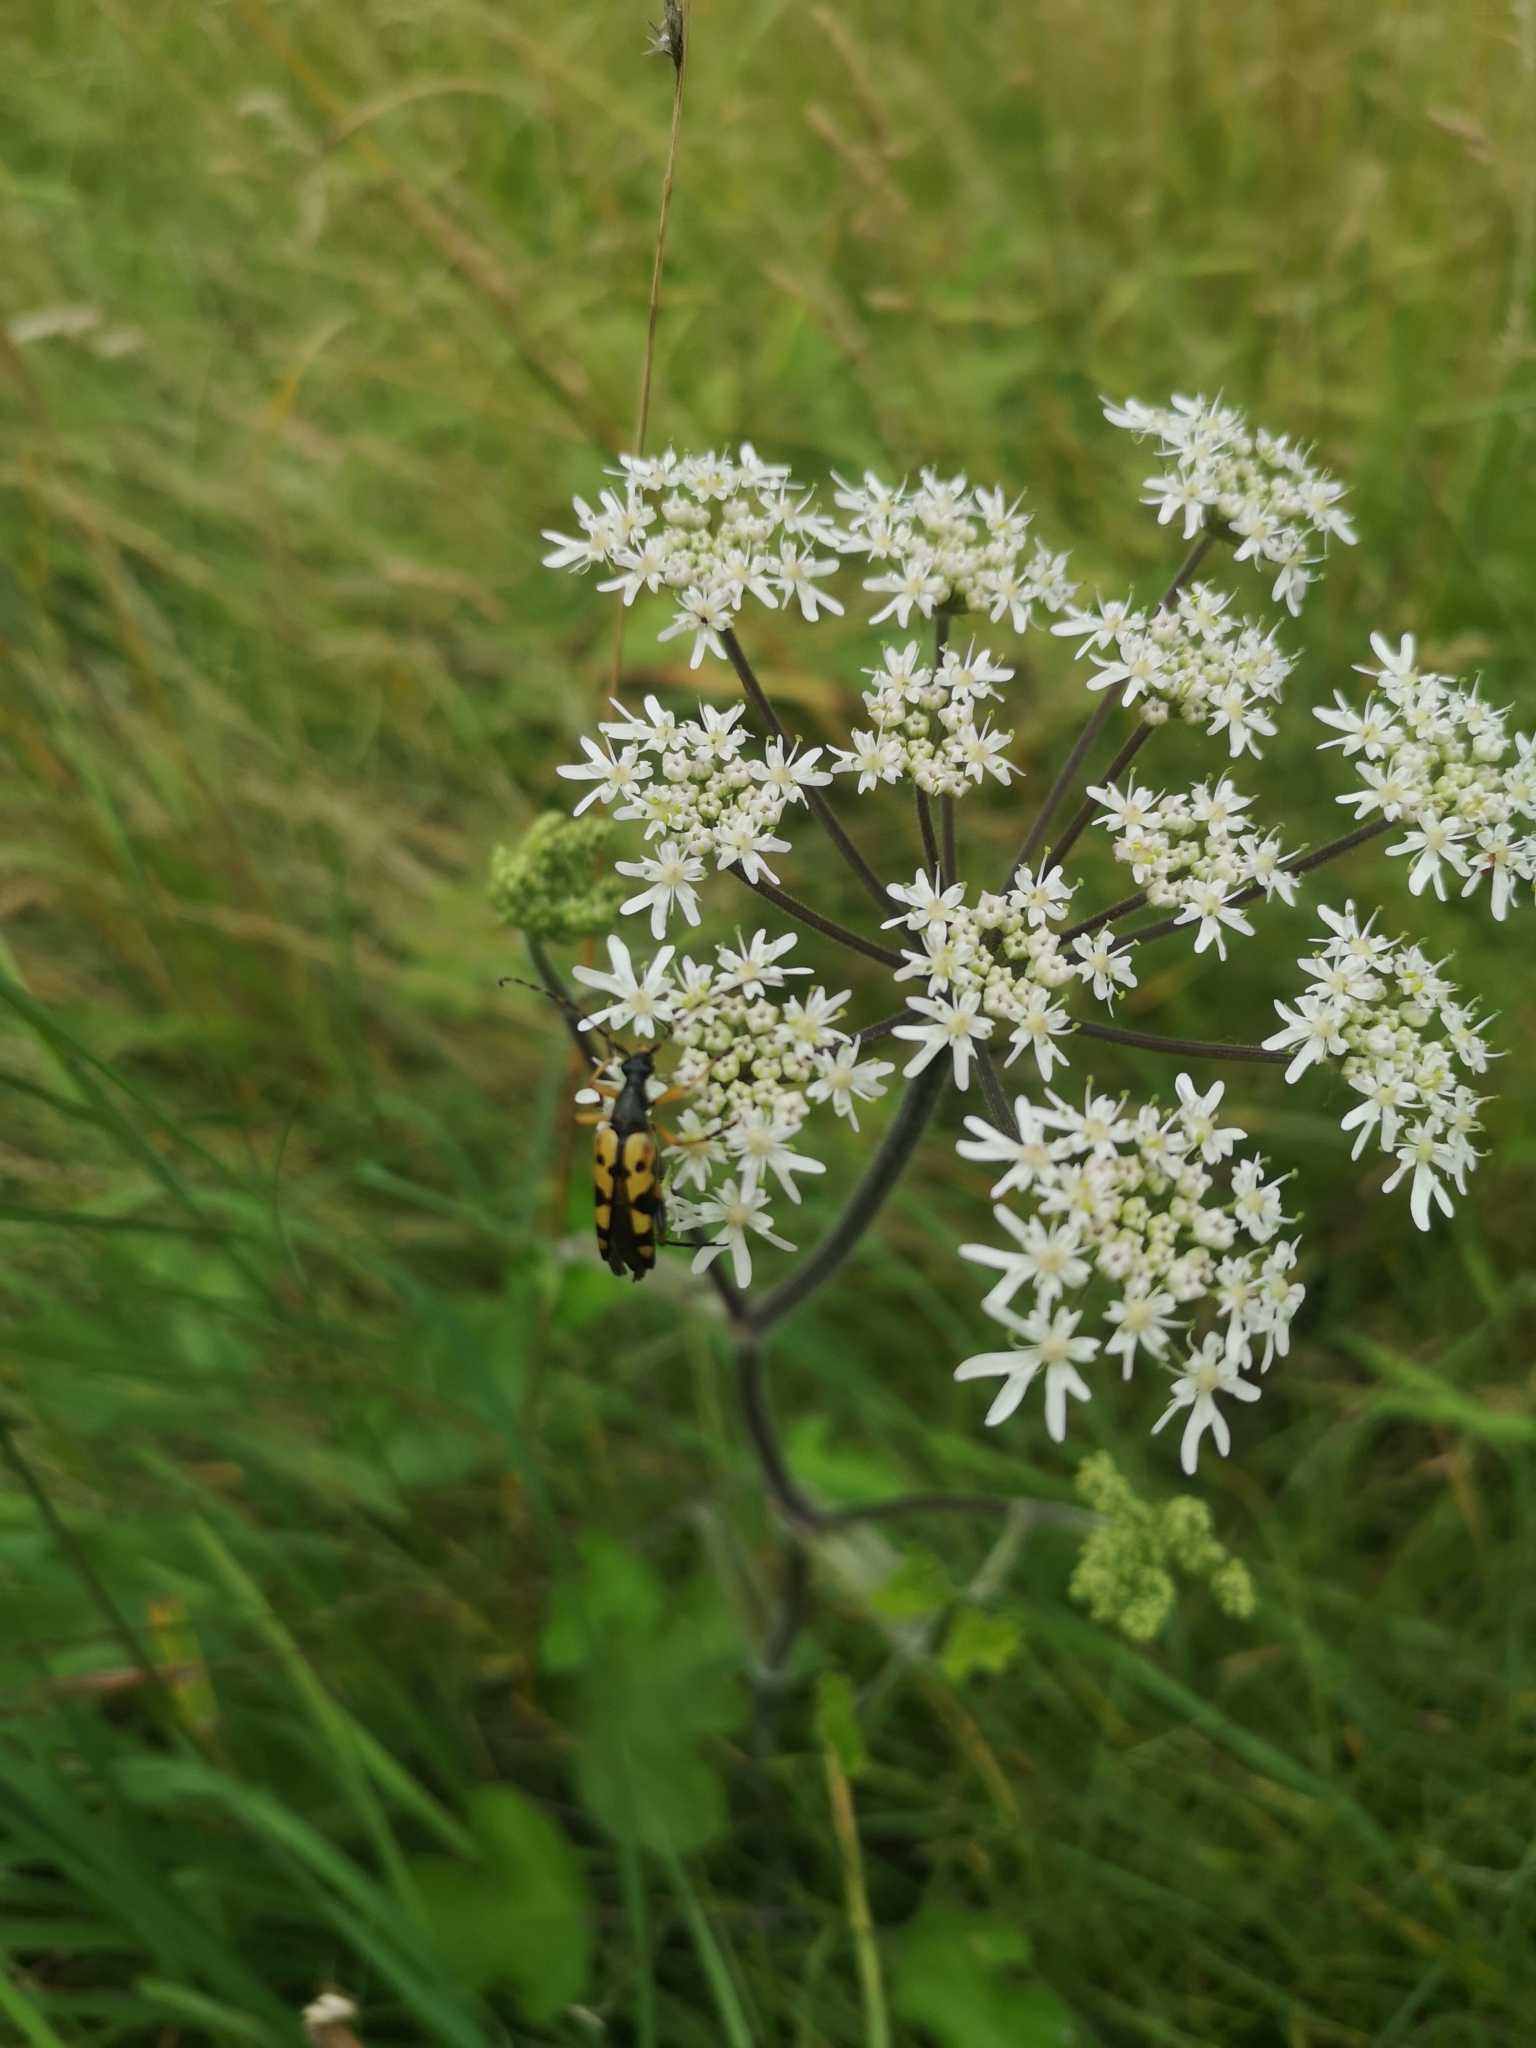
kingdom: Animalia
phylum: Arthropoda
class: Insecta
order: Coleoptera
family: Cerambycidae
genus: Rutpela
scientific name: Rutpela maculata
